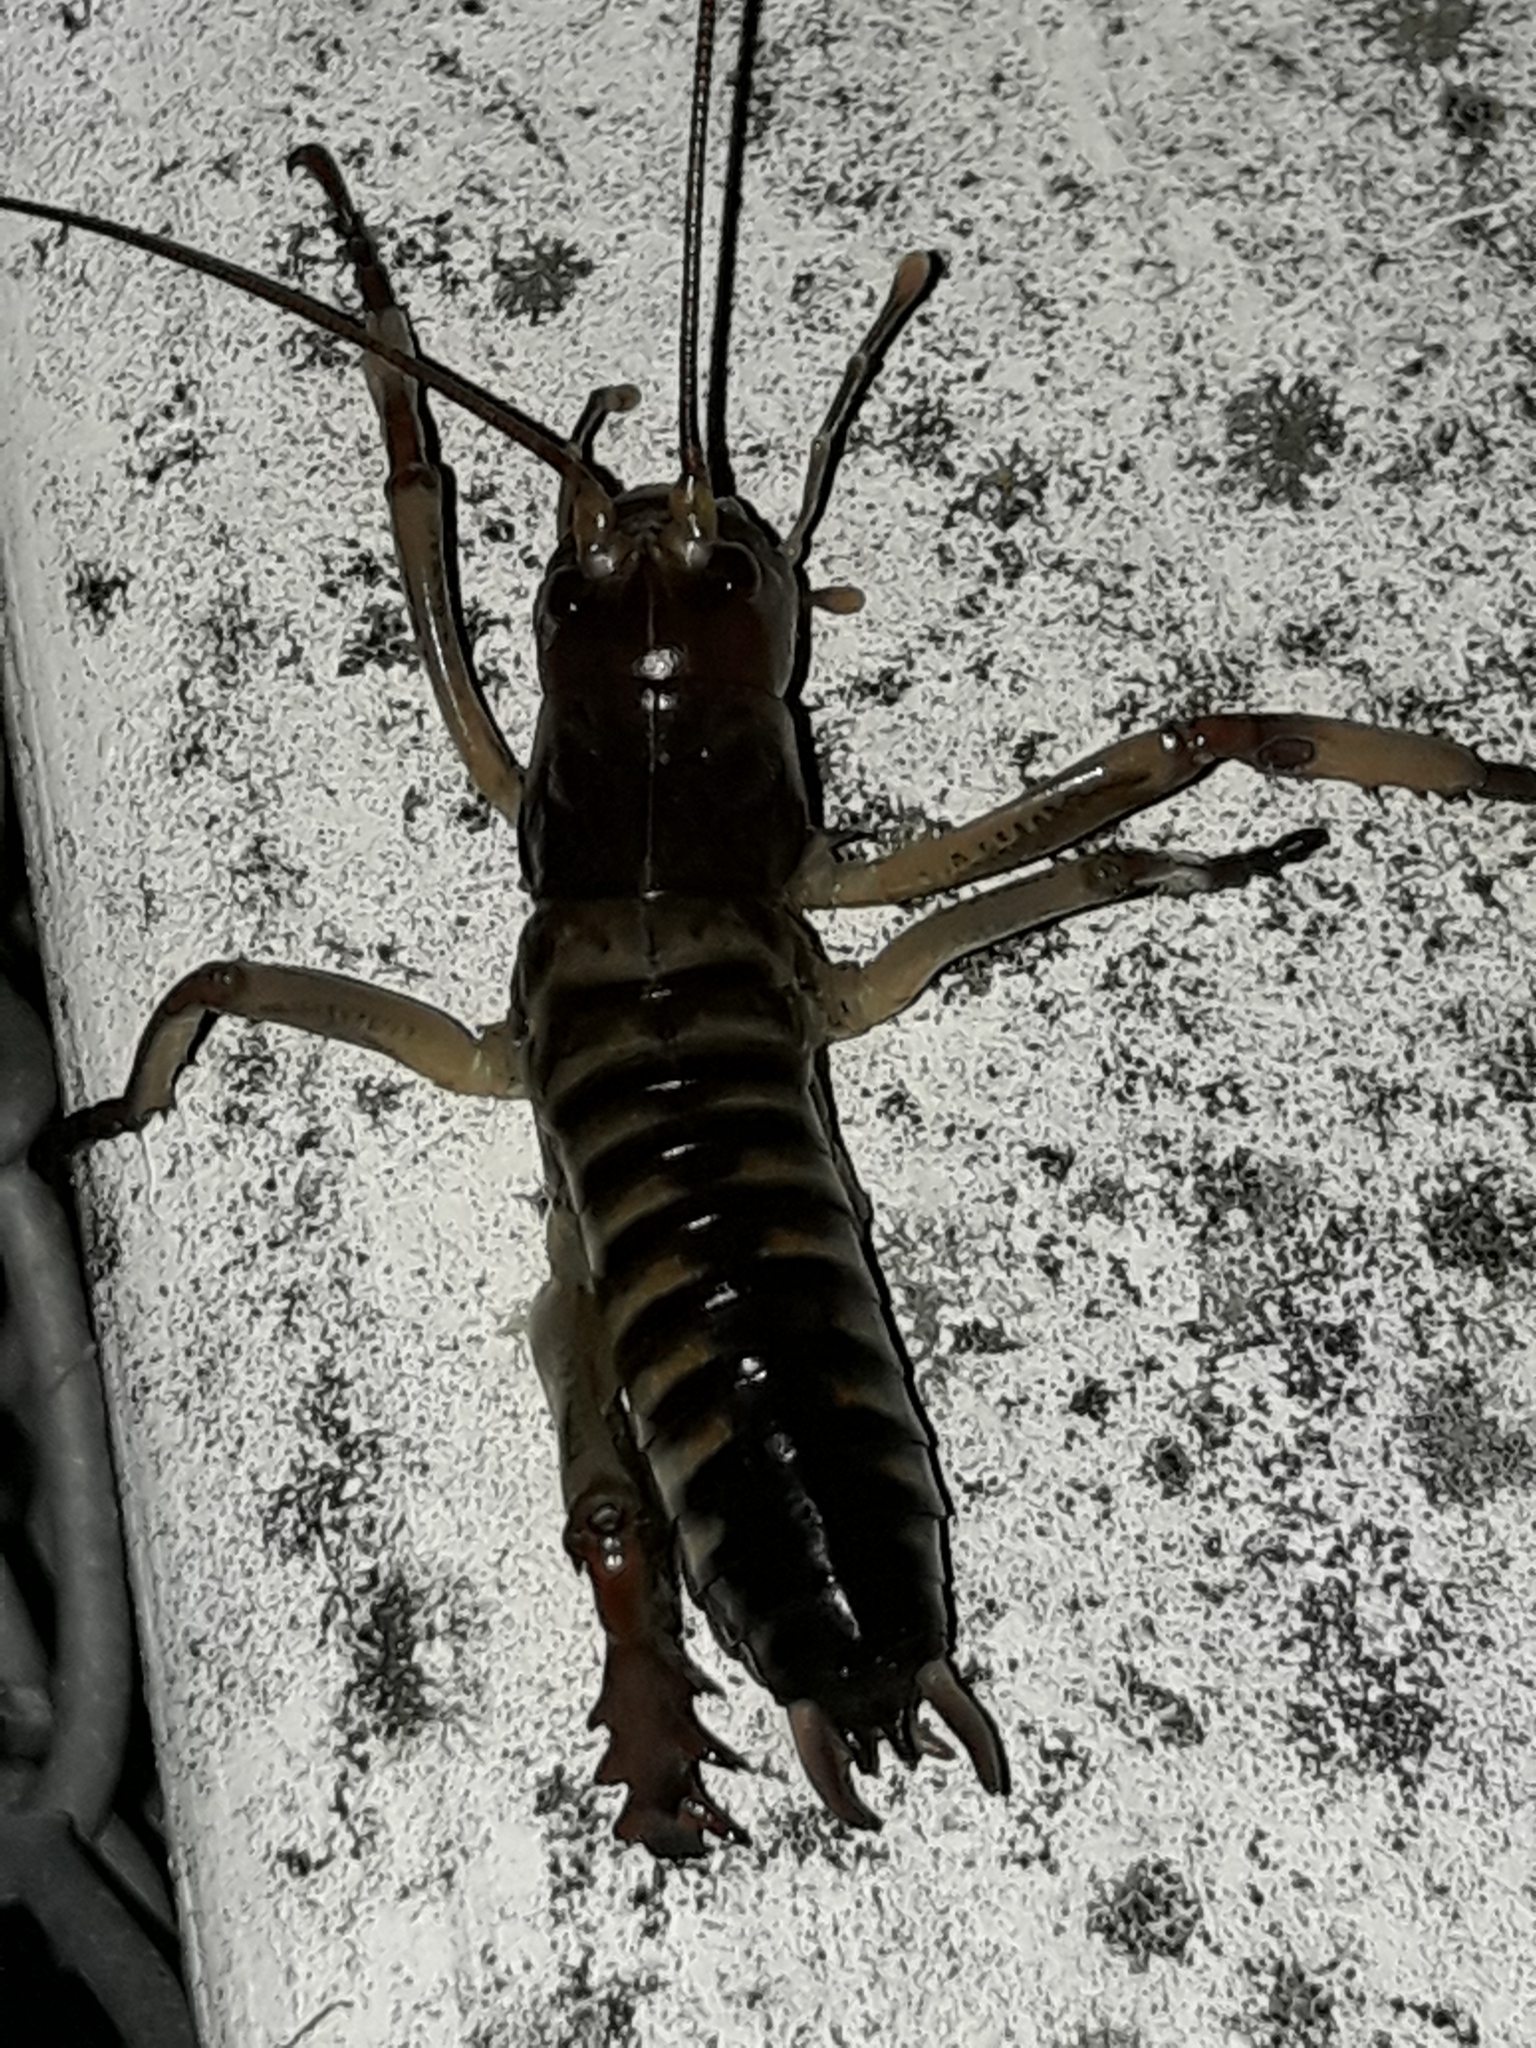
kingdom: Animalia
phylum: Arthropoda
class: Insecta
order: Orthoptera
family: Anostostomatidae
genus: Hemideina
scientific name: Hemideina crassidens
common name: Wellington tree weta
